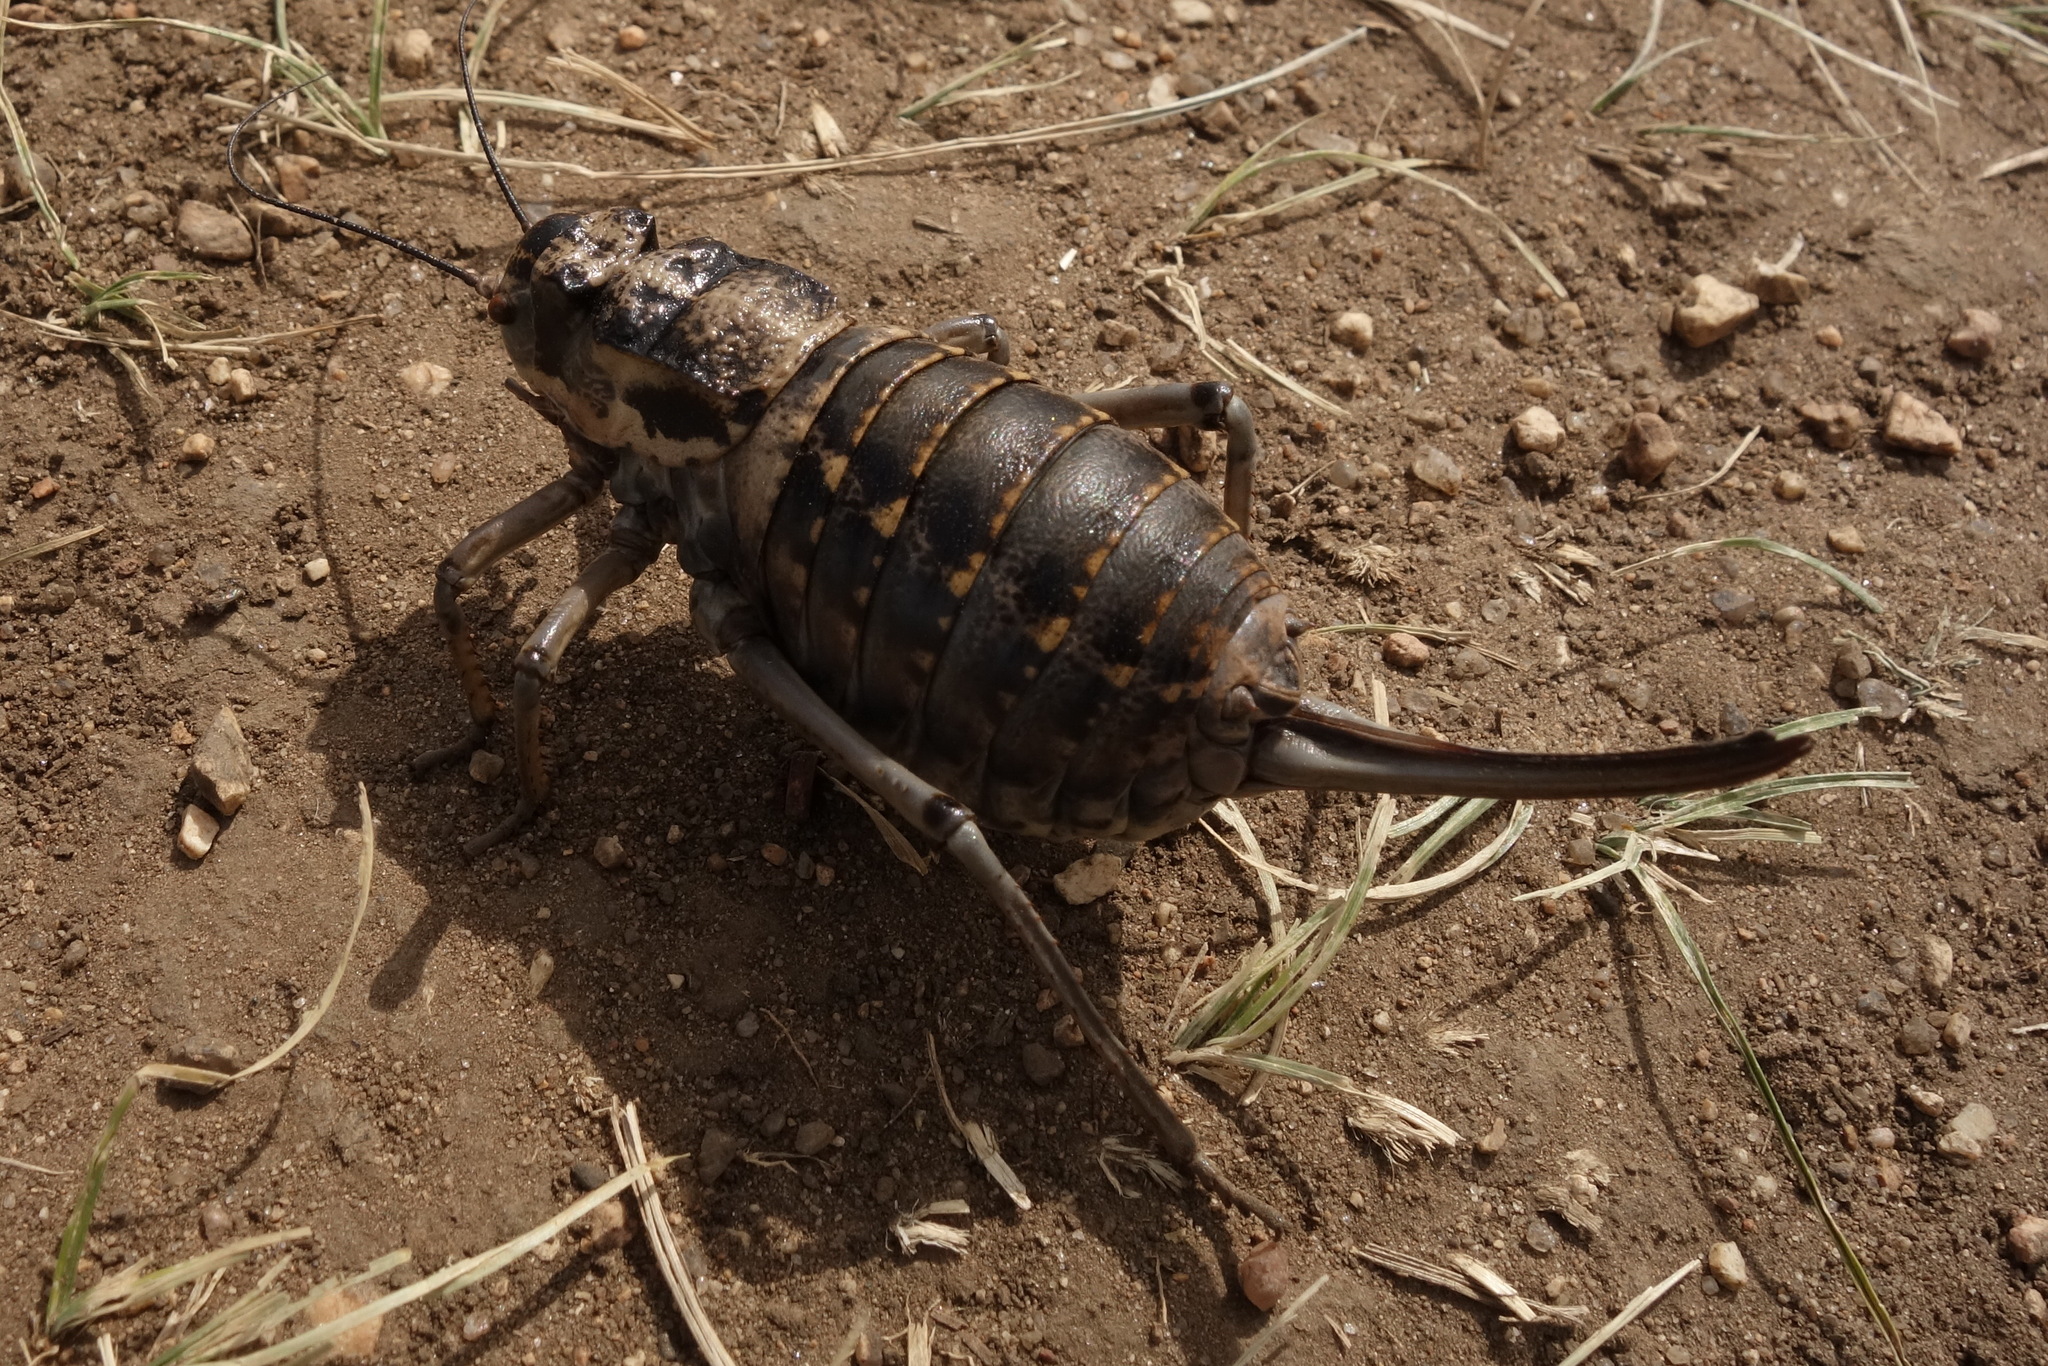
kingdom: Animalia
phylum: Arthropoda
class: Insecta
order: Orthoptera
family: Tettigoniidae
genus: Deracantha
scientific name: Deracantha onos
